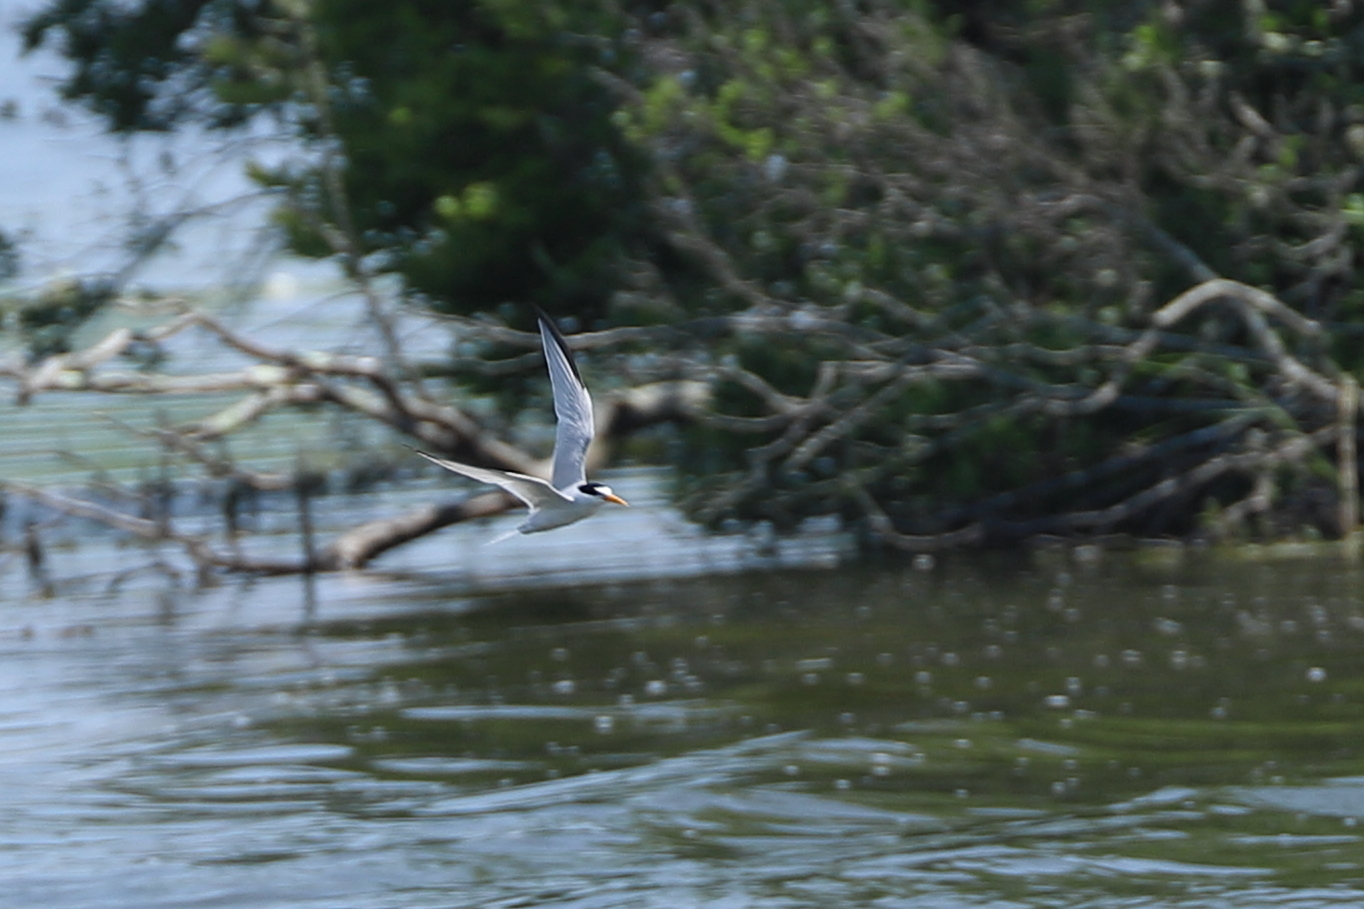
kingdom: Animalia
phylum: Chordata
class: Aves
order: Charadriiformes
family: Laridae
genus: Sternula
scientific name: Sternula antillarum
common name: Least tern
